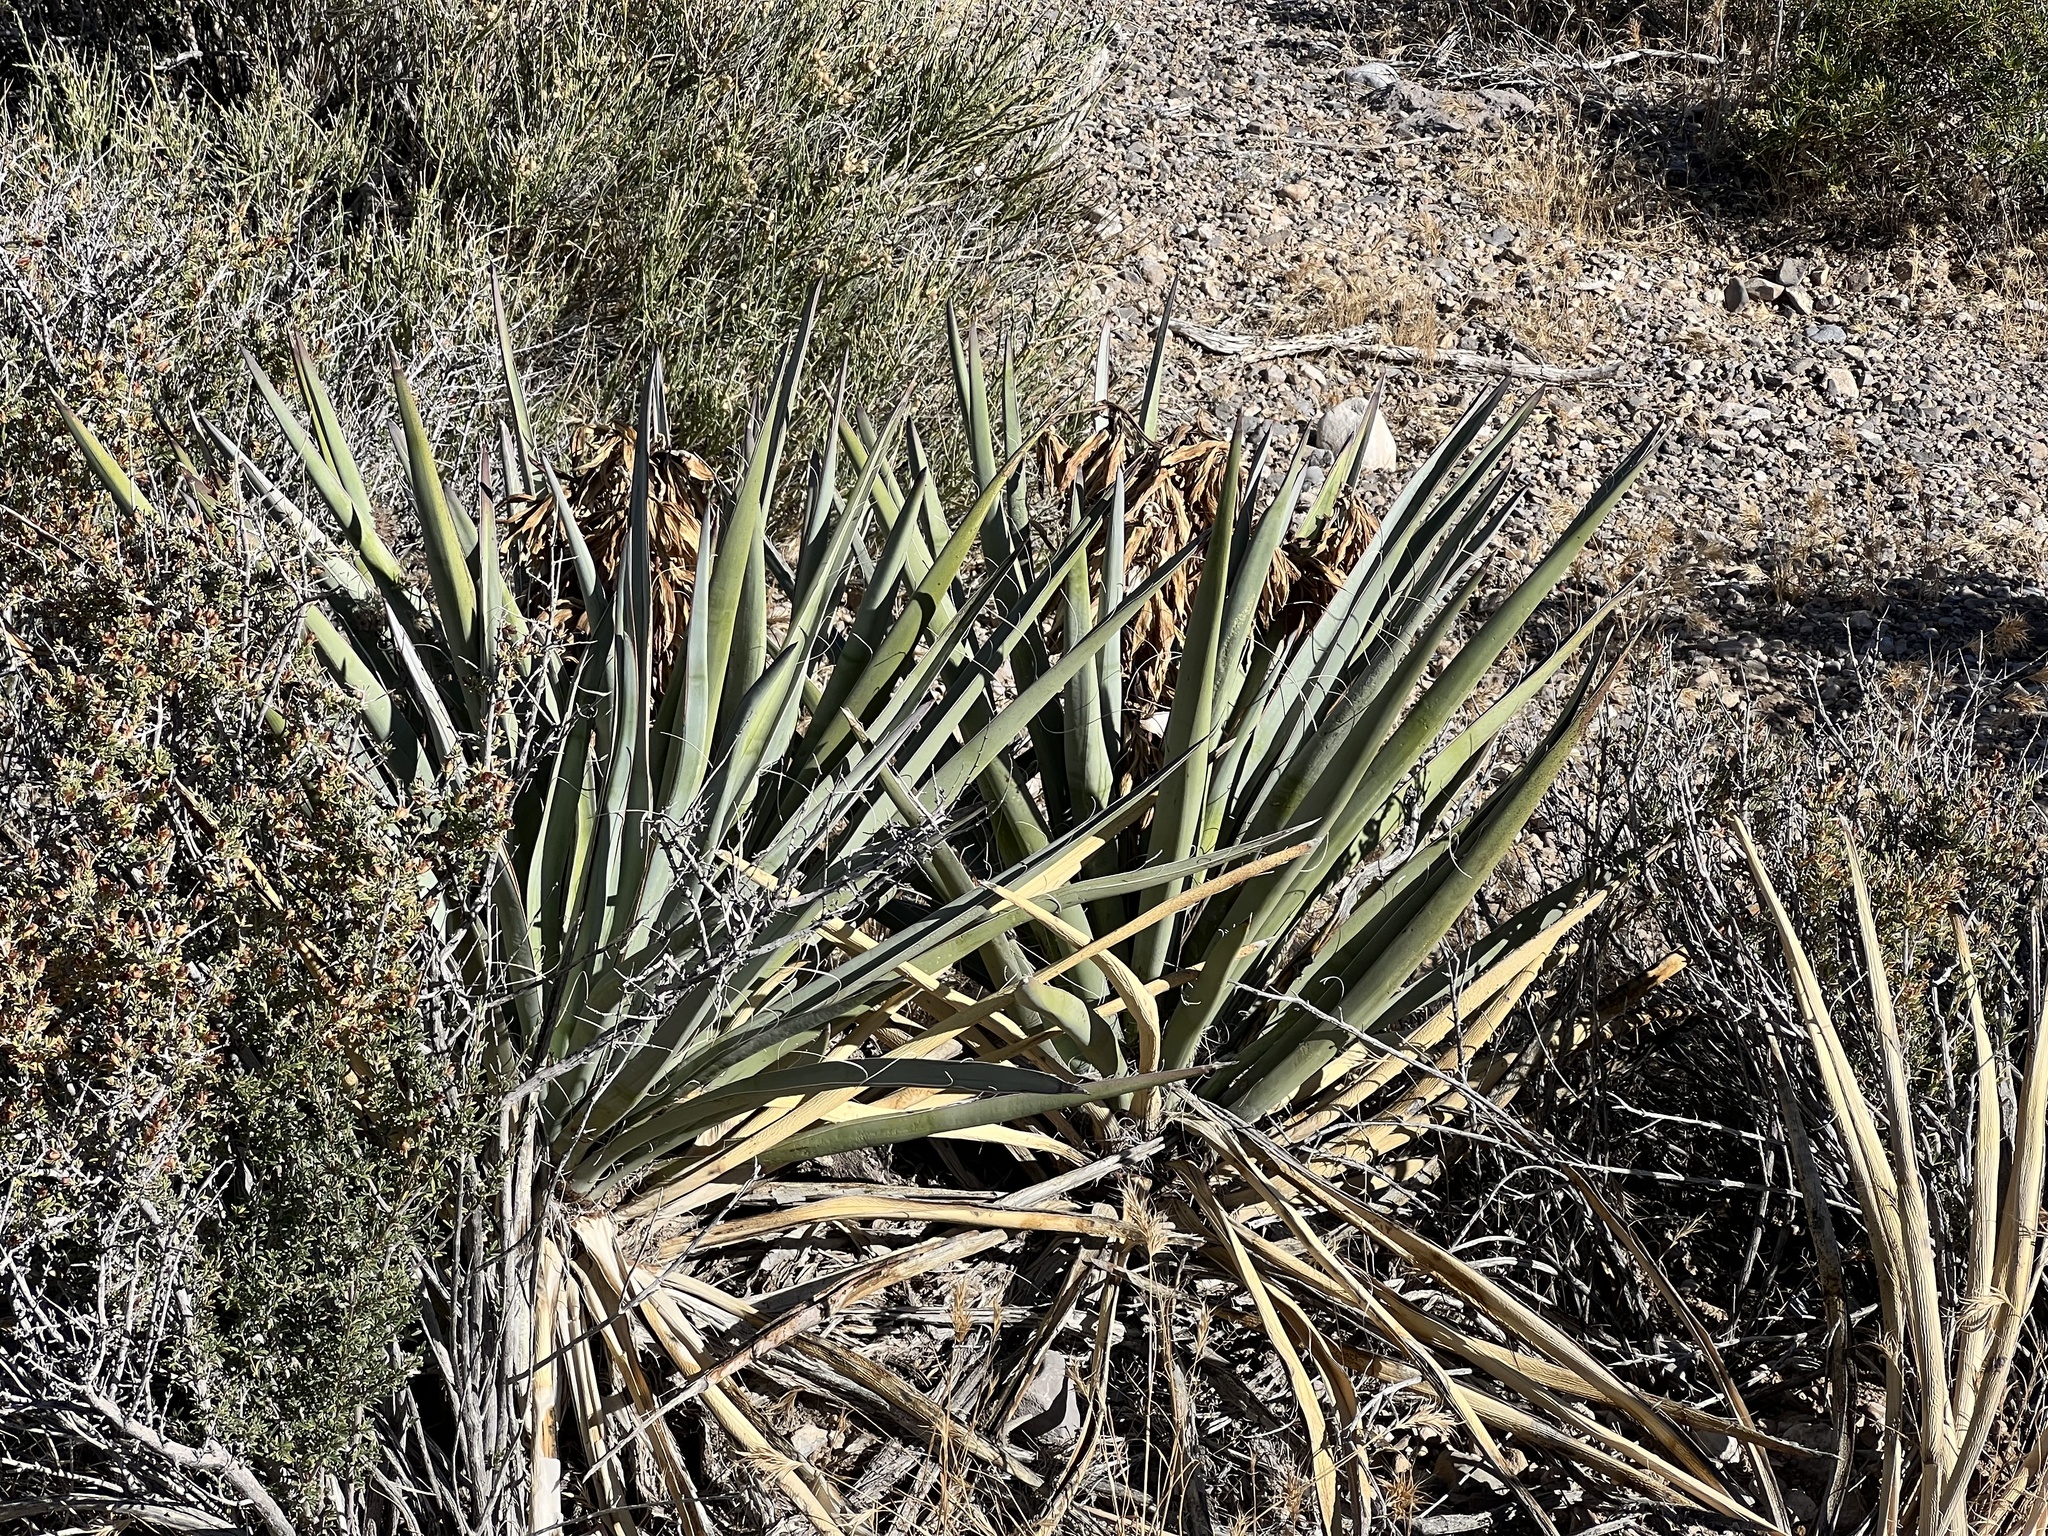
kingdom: Plantae
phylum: Tracheophyta
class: Liliopsida
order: Asparagales
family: Asparagaceae
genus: Yucca
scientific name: Yucca baccata
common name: Banana yucca
